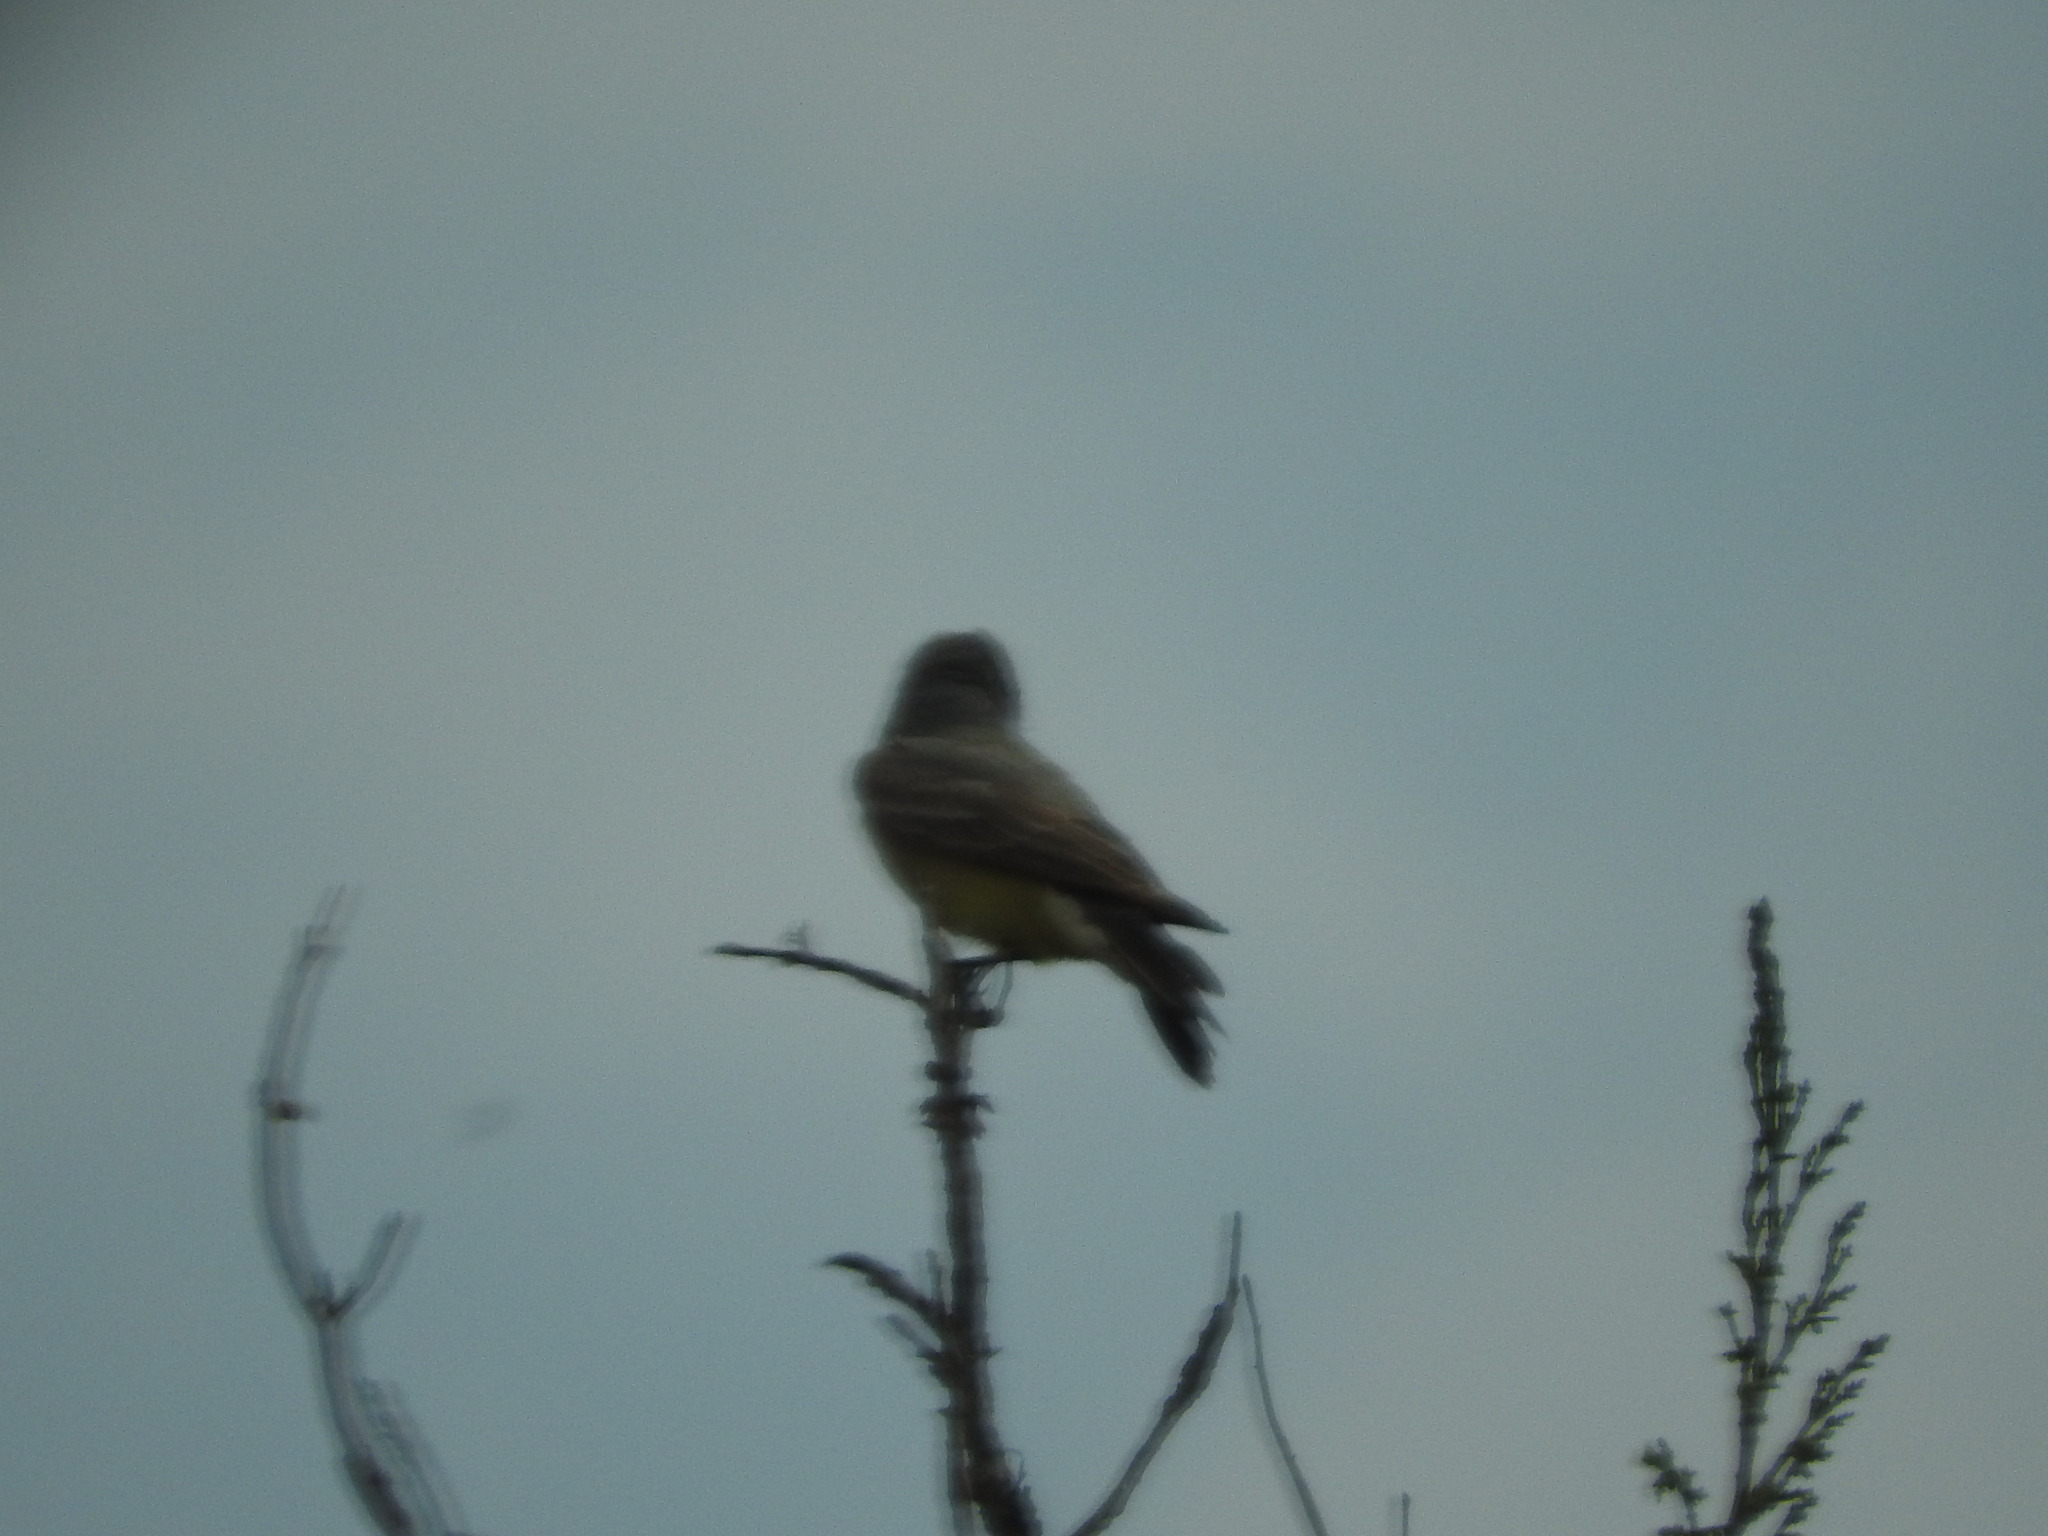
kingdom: Animalia
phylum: Chordata
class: Aves
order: Passeriformes
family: Tyrannidae
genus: Tyrannus
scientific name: Tyrannus vociferans
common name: Cassin's kingbird
